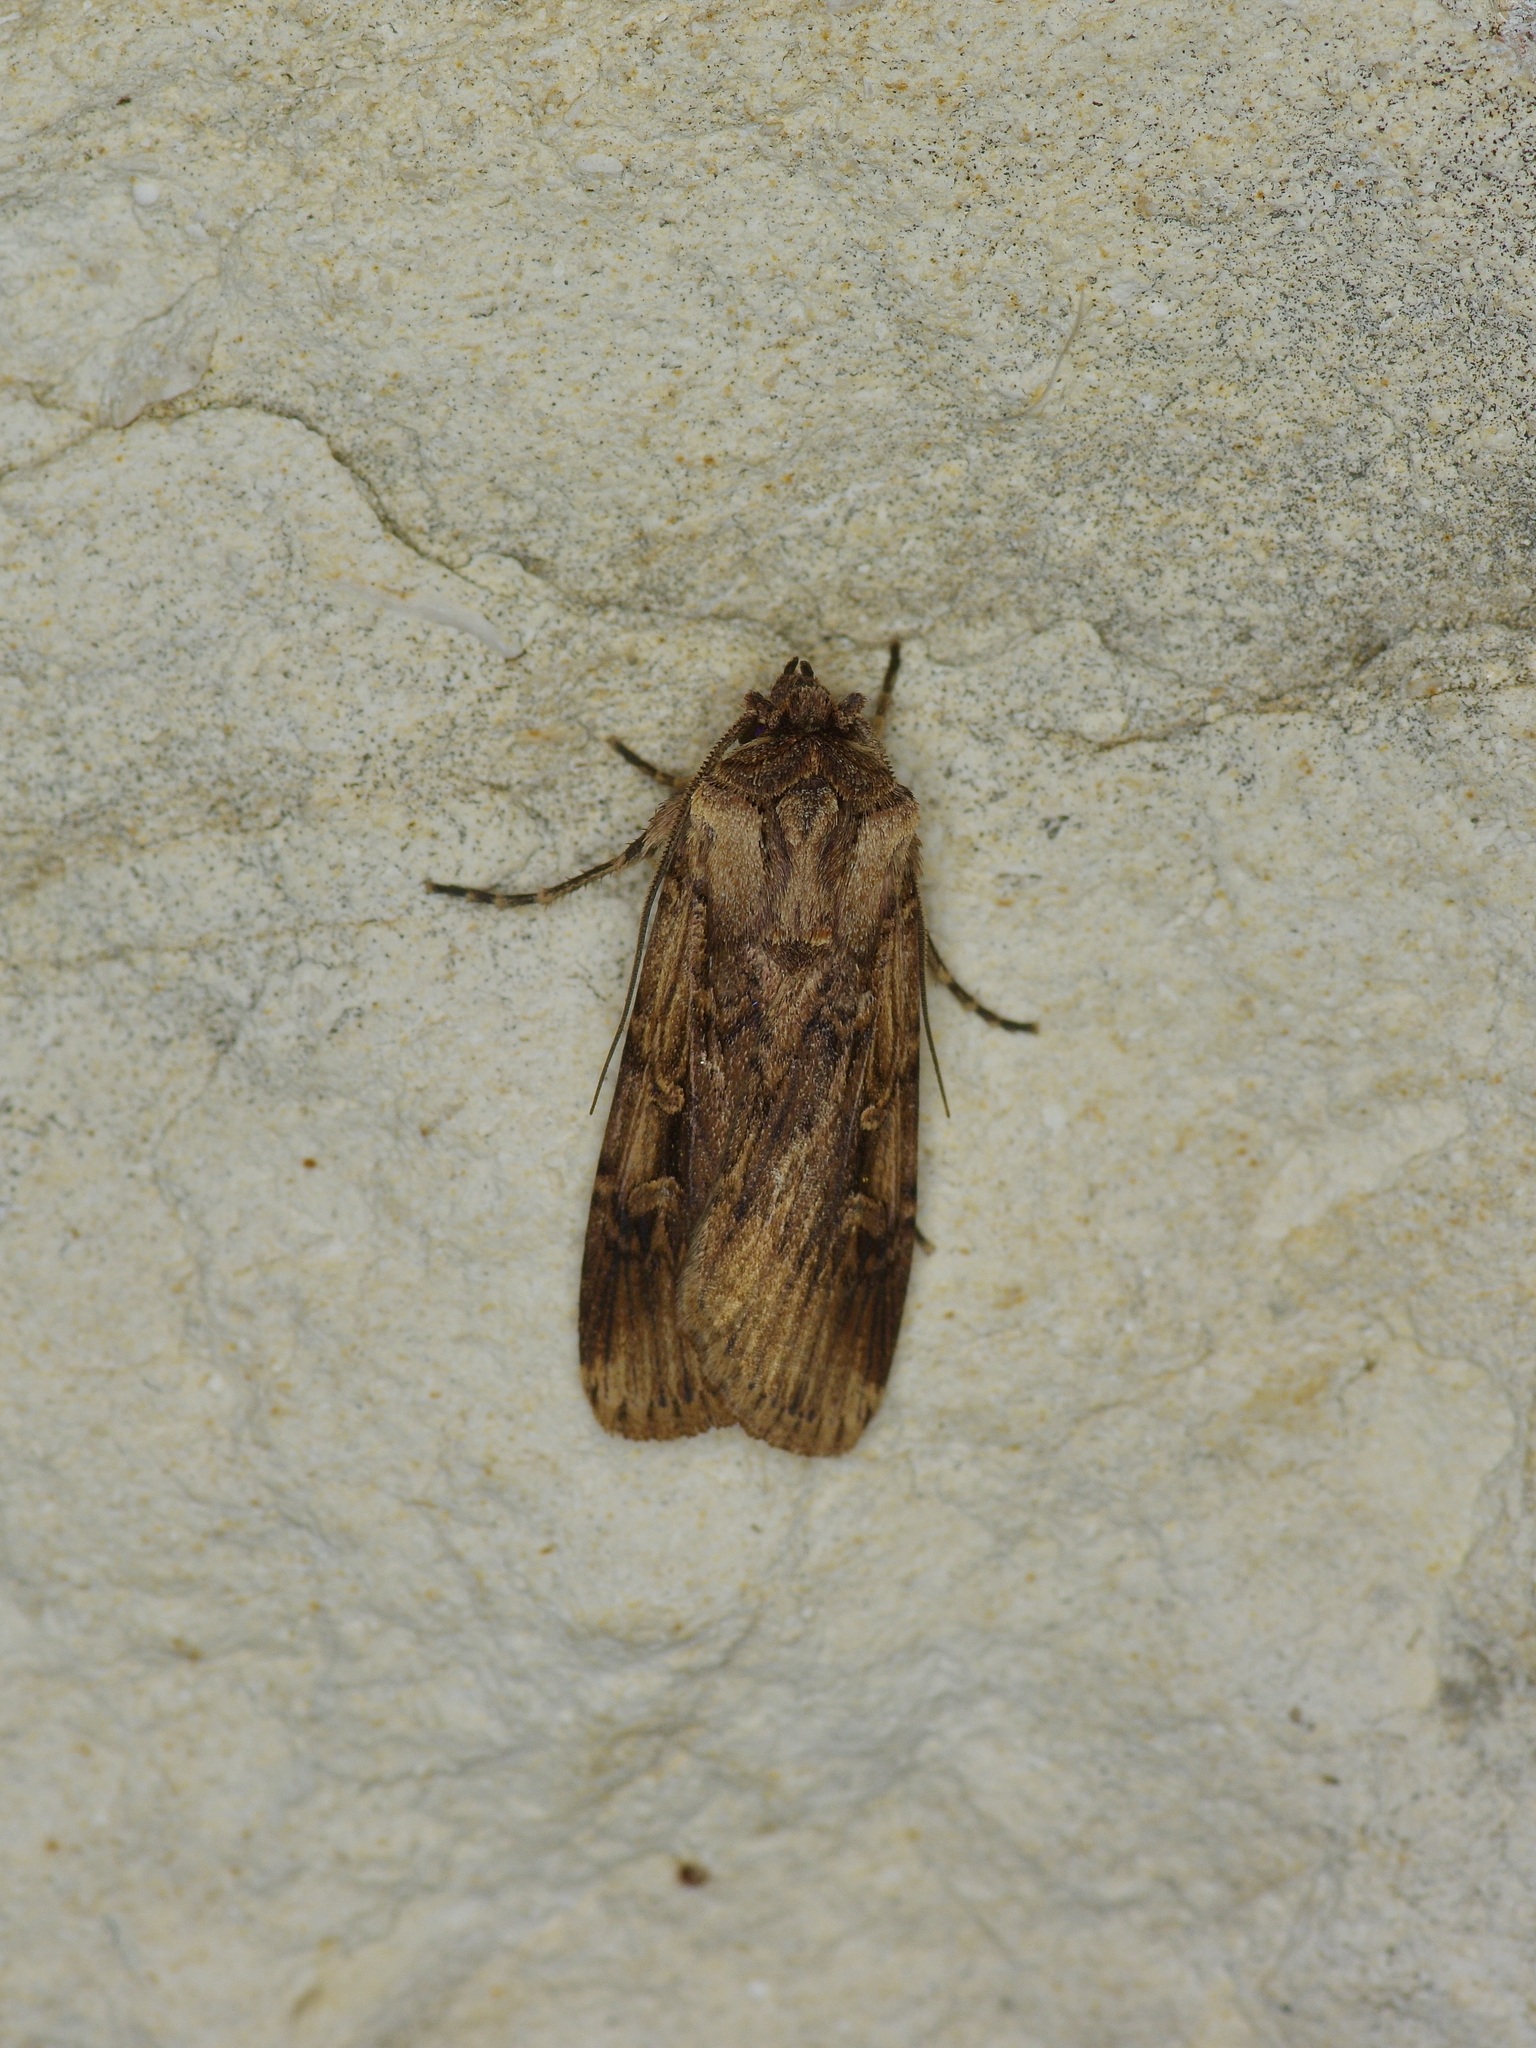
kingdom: Animalia
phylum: Arthropoda
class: Insecta
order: Lepidoptera
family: Noctuidae
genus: Feltia
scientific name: Feltia subterranea
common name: Granulate cutworm
